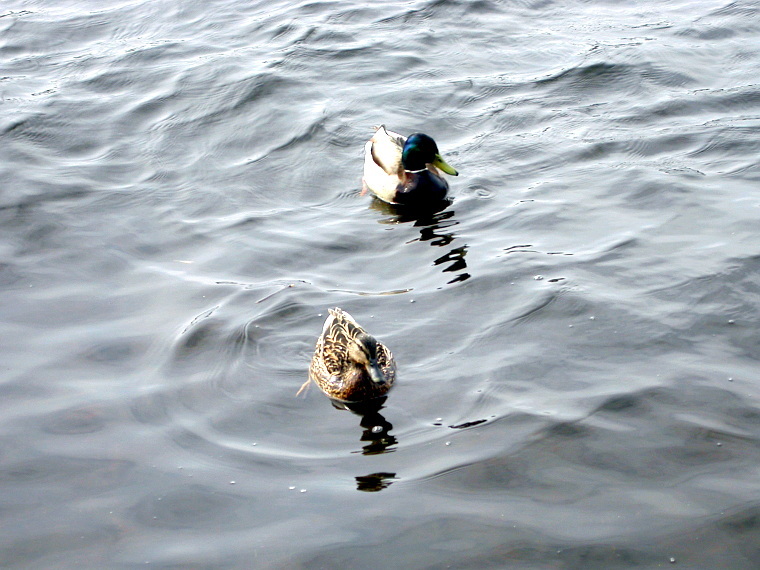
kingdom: Animalia
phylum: Chordata
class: Aves
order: Anseriformes
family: Anatidae
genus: Anas
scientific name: Anas platyrhynchos
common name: Mallard
